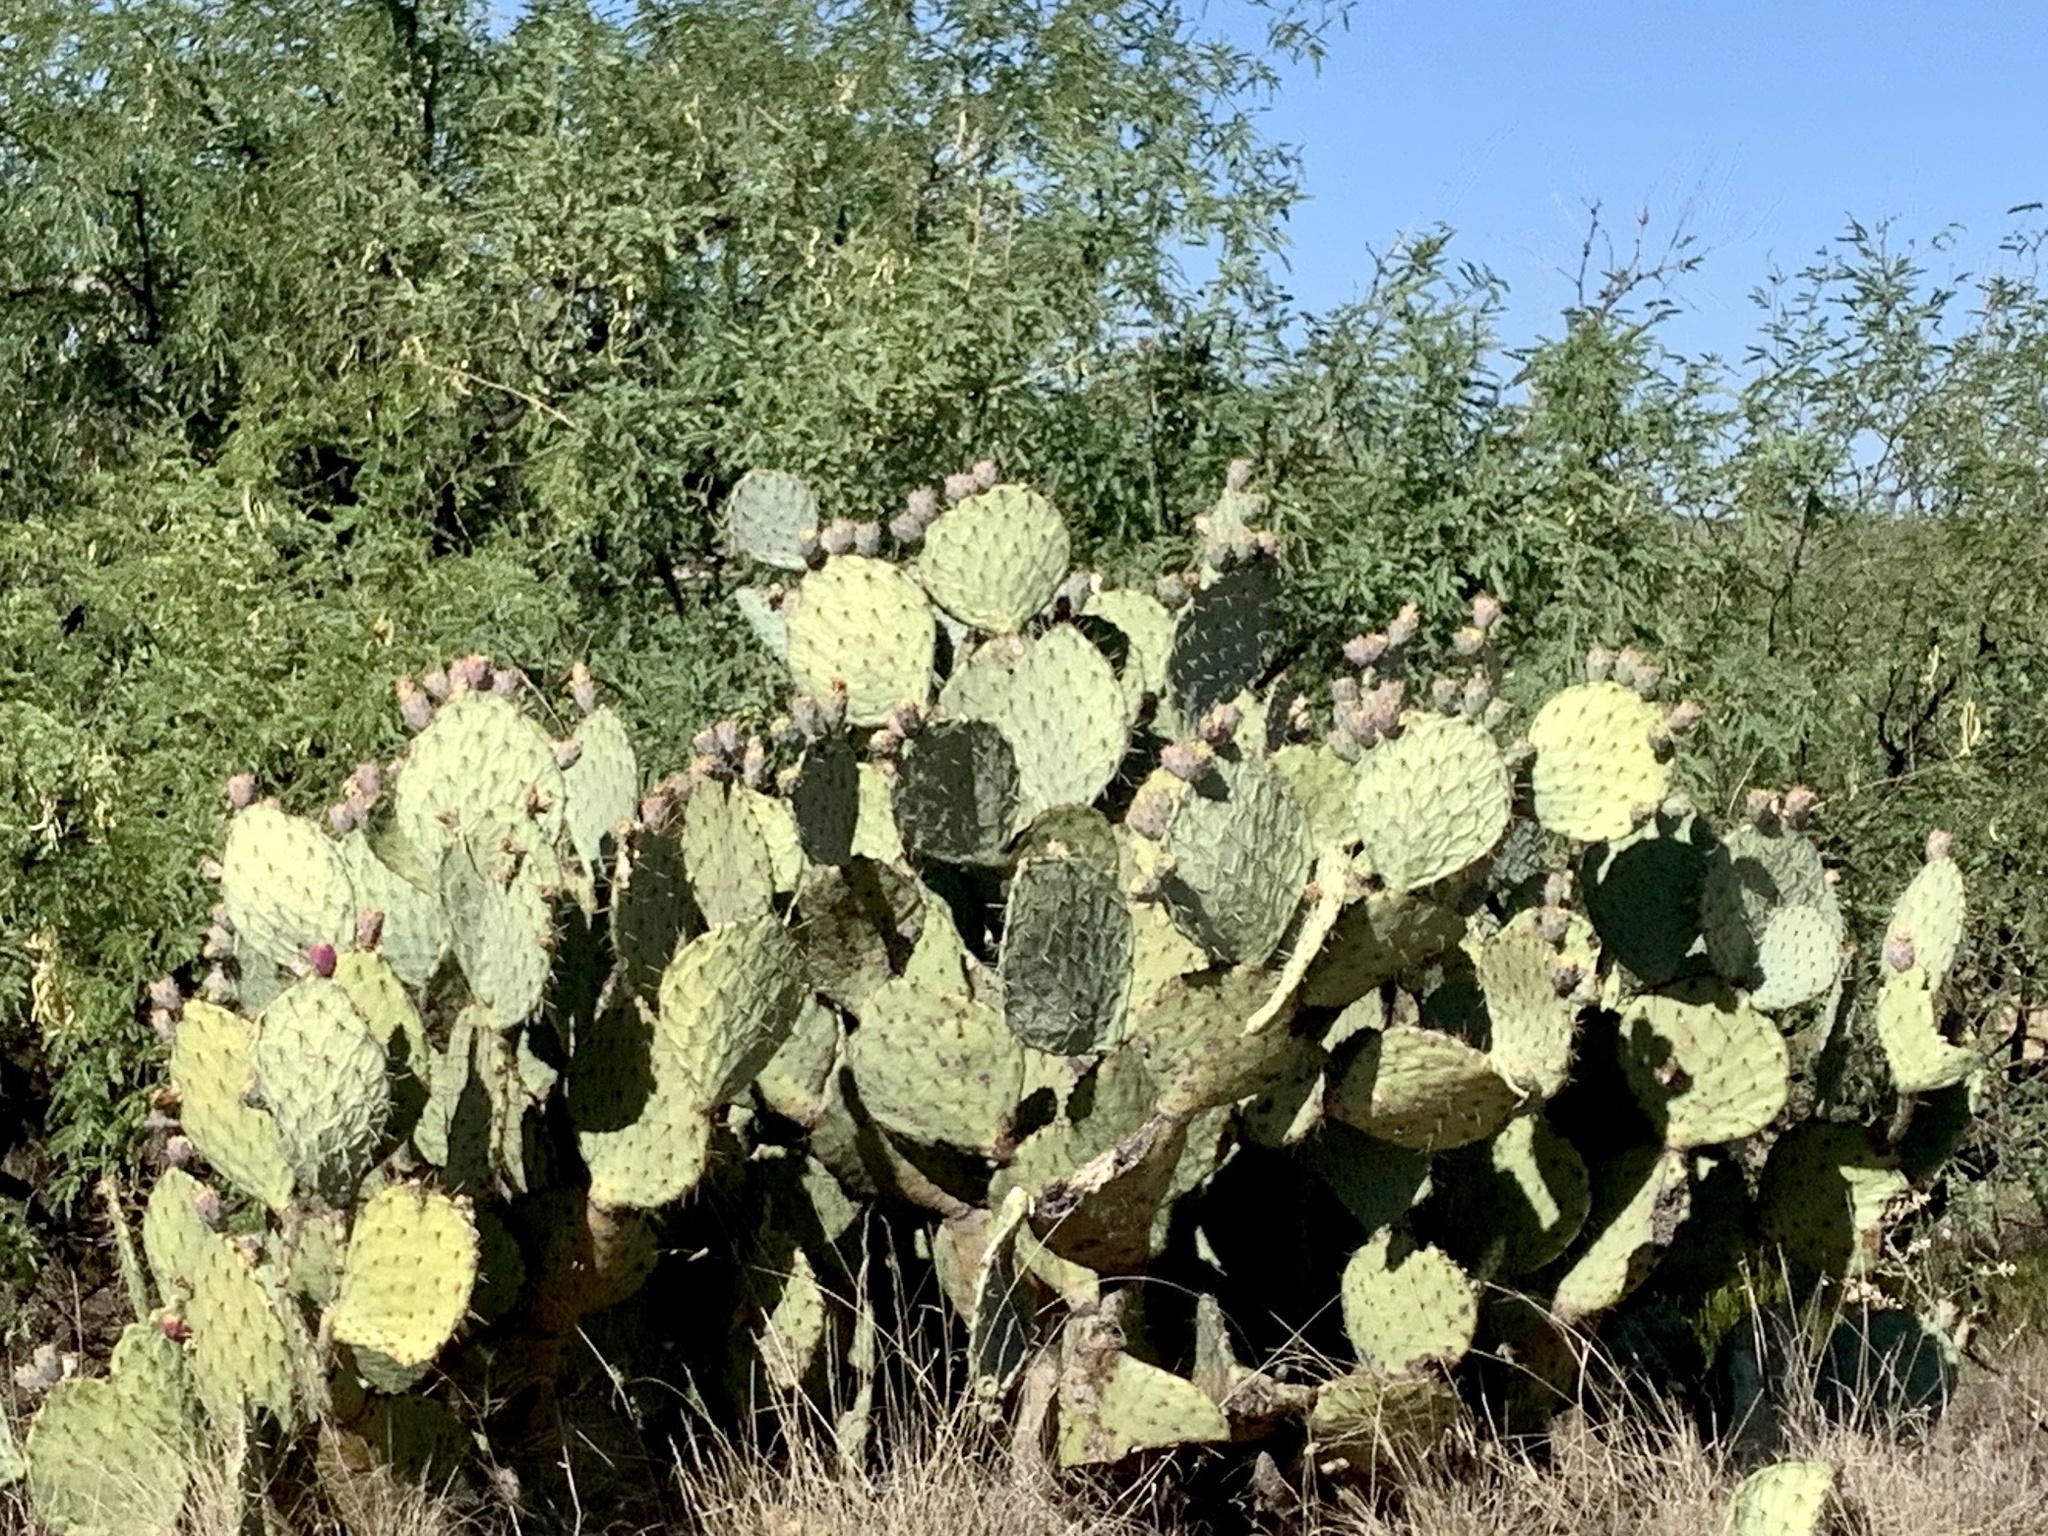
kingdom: Plantae
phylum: Tracheophyta
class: Magnoliopsida
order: Caryophyllales
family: Cactaceae
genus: Opuntia
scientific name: Opuntia engelmannii
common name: Cactus-apple
